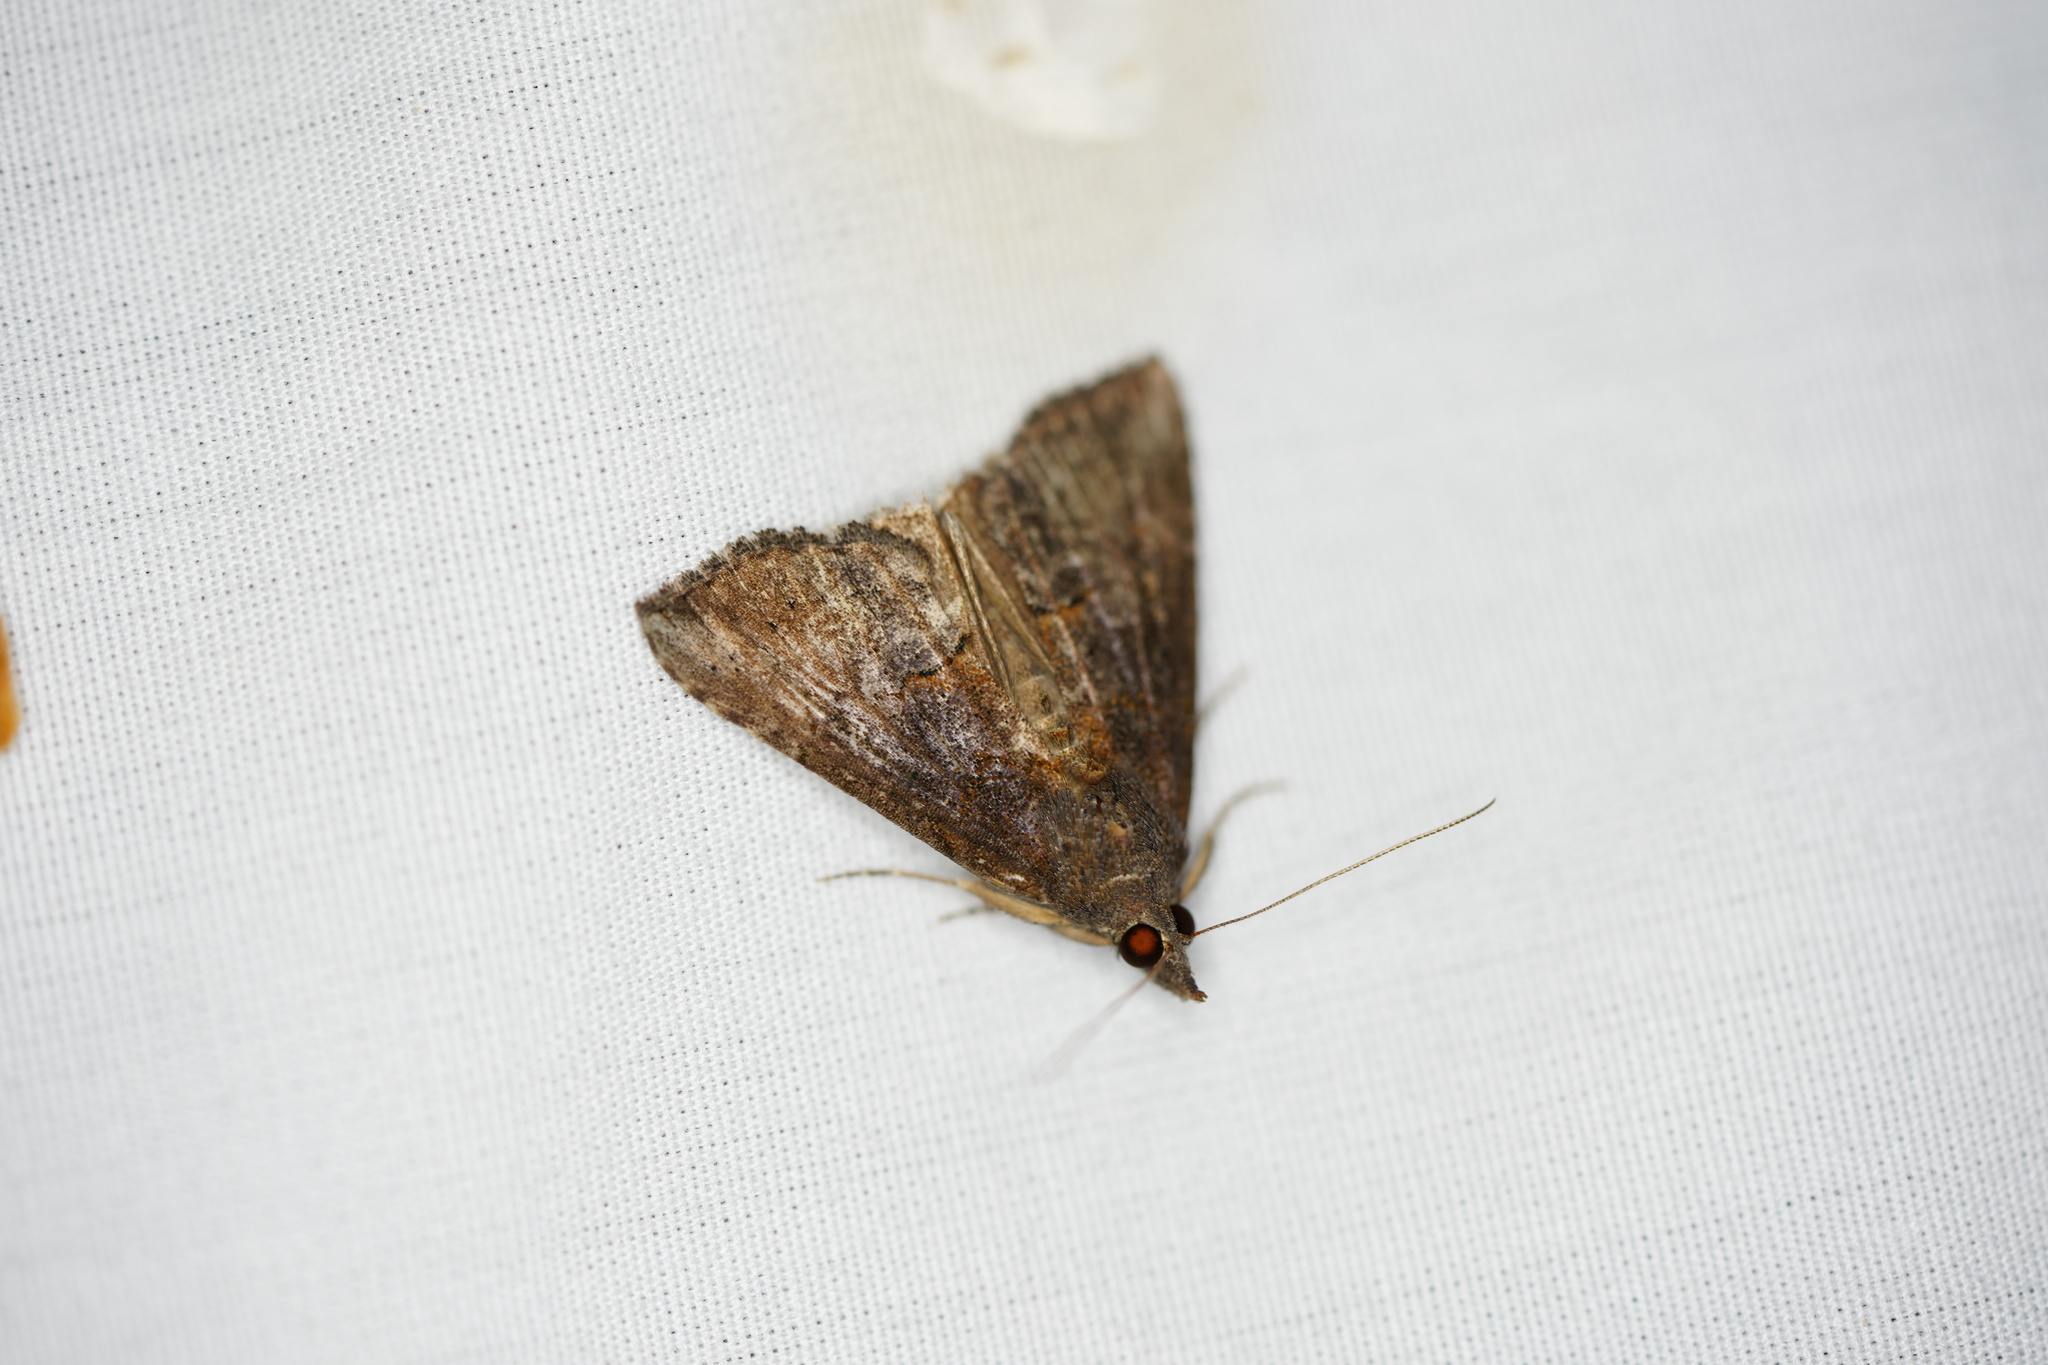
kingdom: Animalia
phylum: Arthropoda
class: Insecta
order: Lepidoptera
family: Erebidae
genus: Hypena
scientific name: Hypena scabra
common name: Green cloverworm
